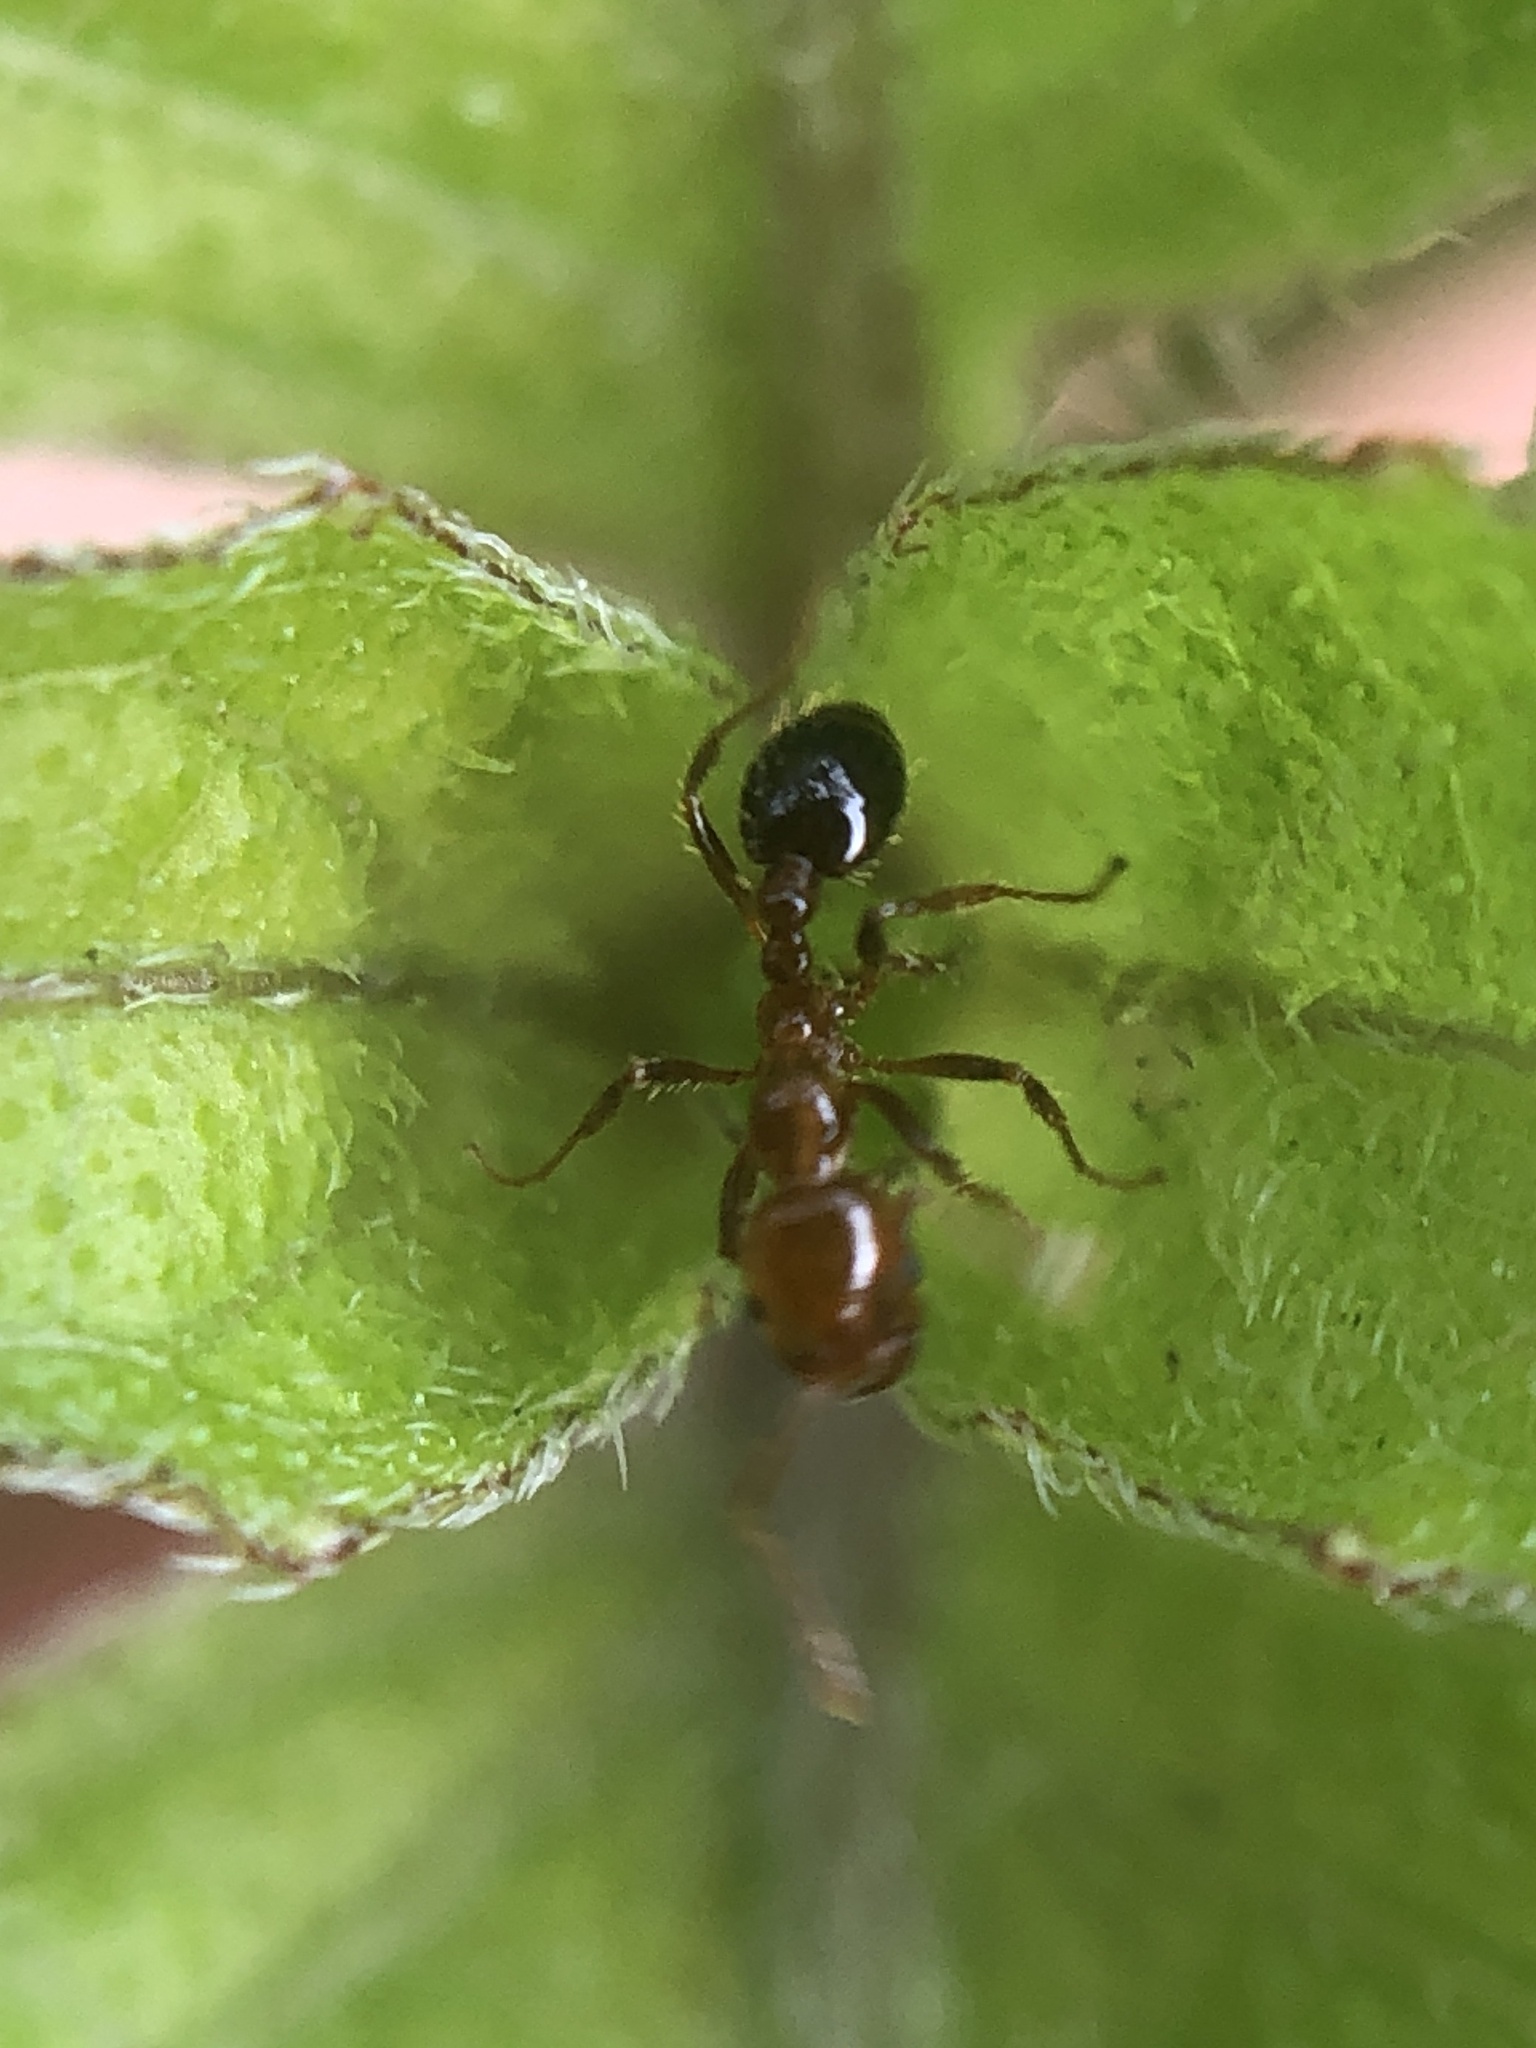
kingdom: Animalia
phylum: Arthropoda
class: Insecta
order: Hymenoptera
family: Formicidae
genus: Solenopsis
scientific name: Solenopsis invicta
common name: Red imported fire ant
